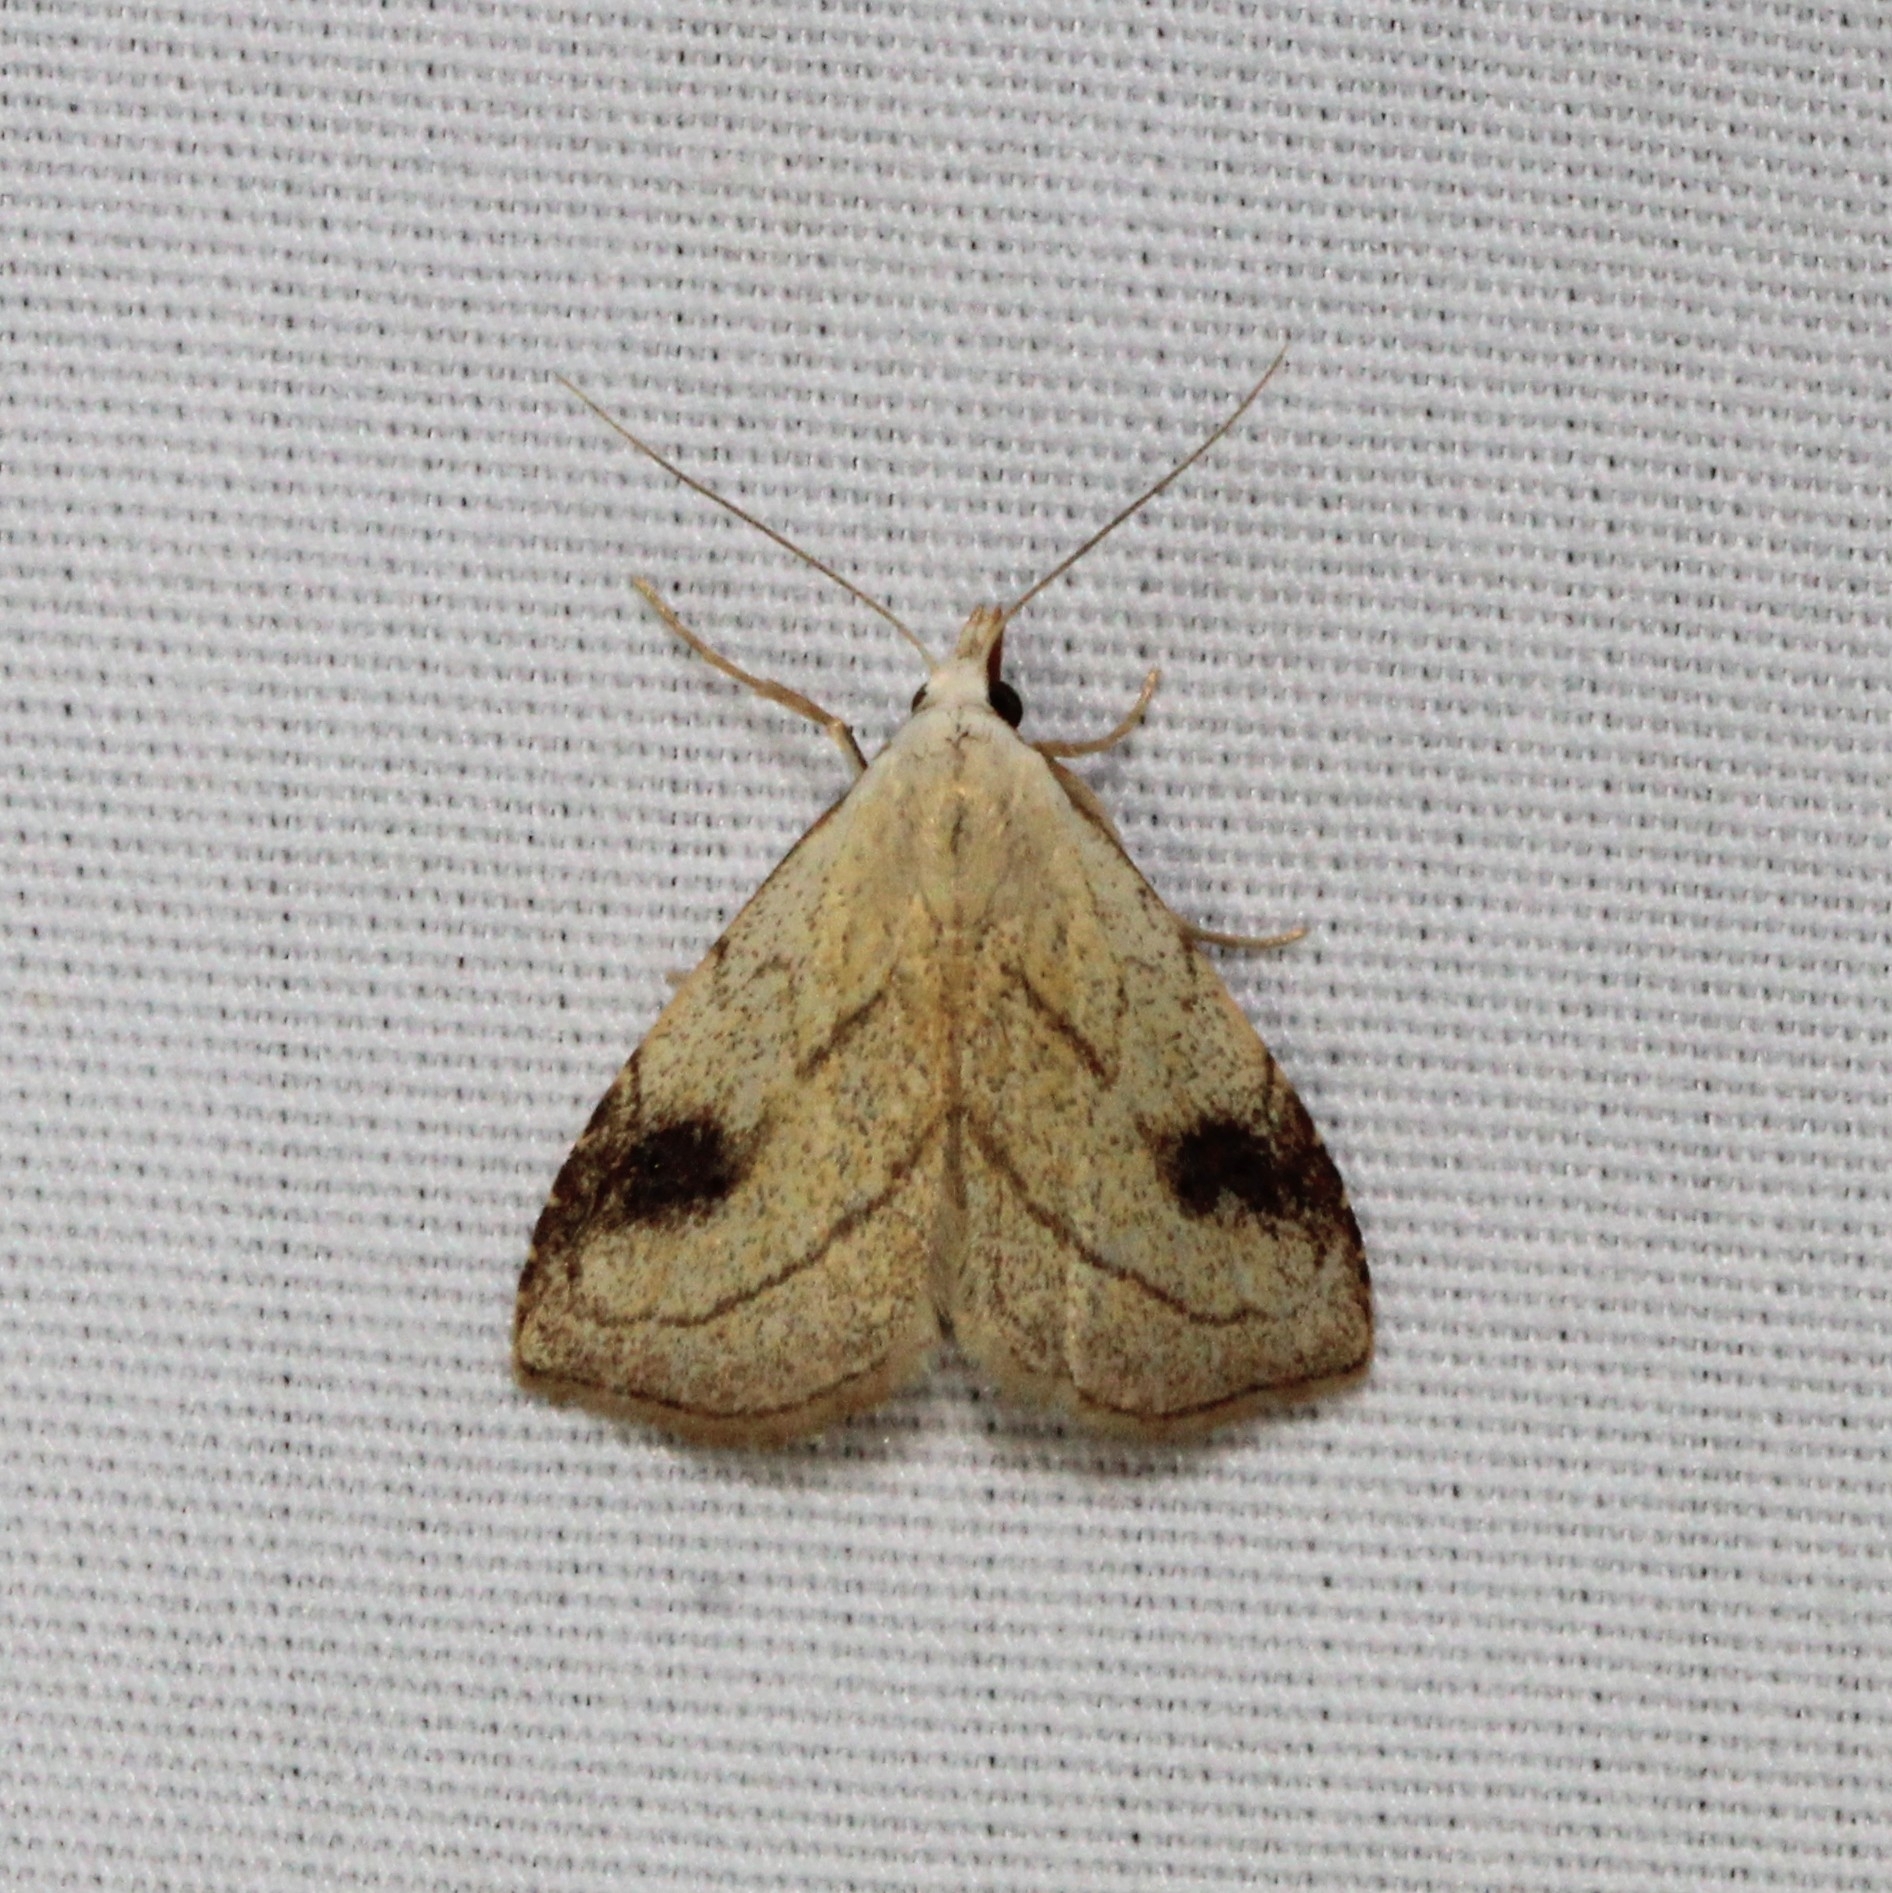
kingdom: Animalia
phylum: Arthropoda
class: Insecta
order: Lepidoptera
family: Erebidae
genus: Rivula
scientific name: Rivula propinqualis
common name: Spotted grass moth
